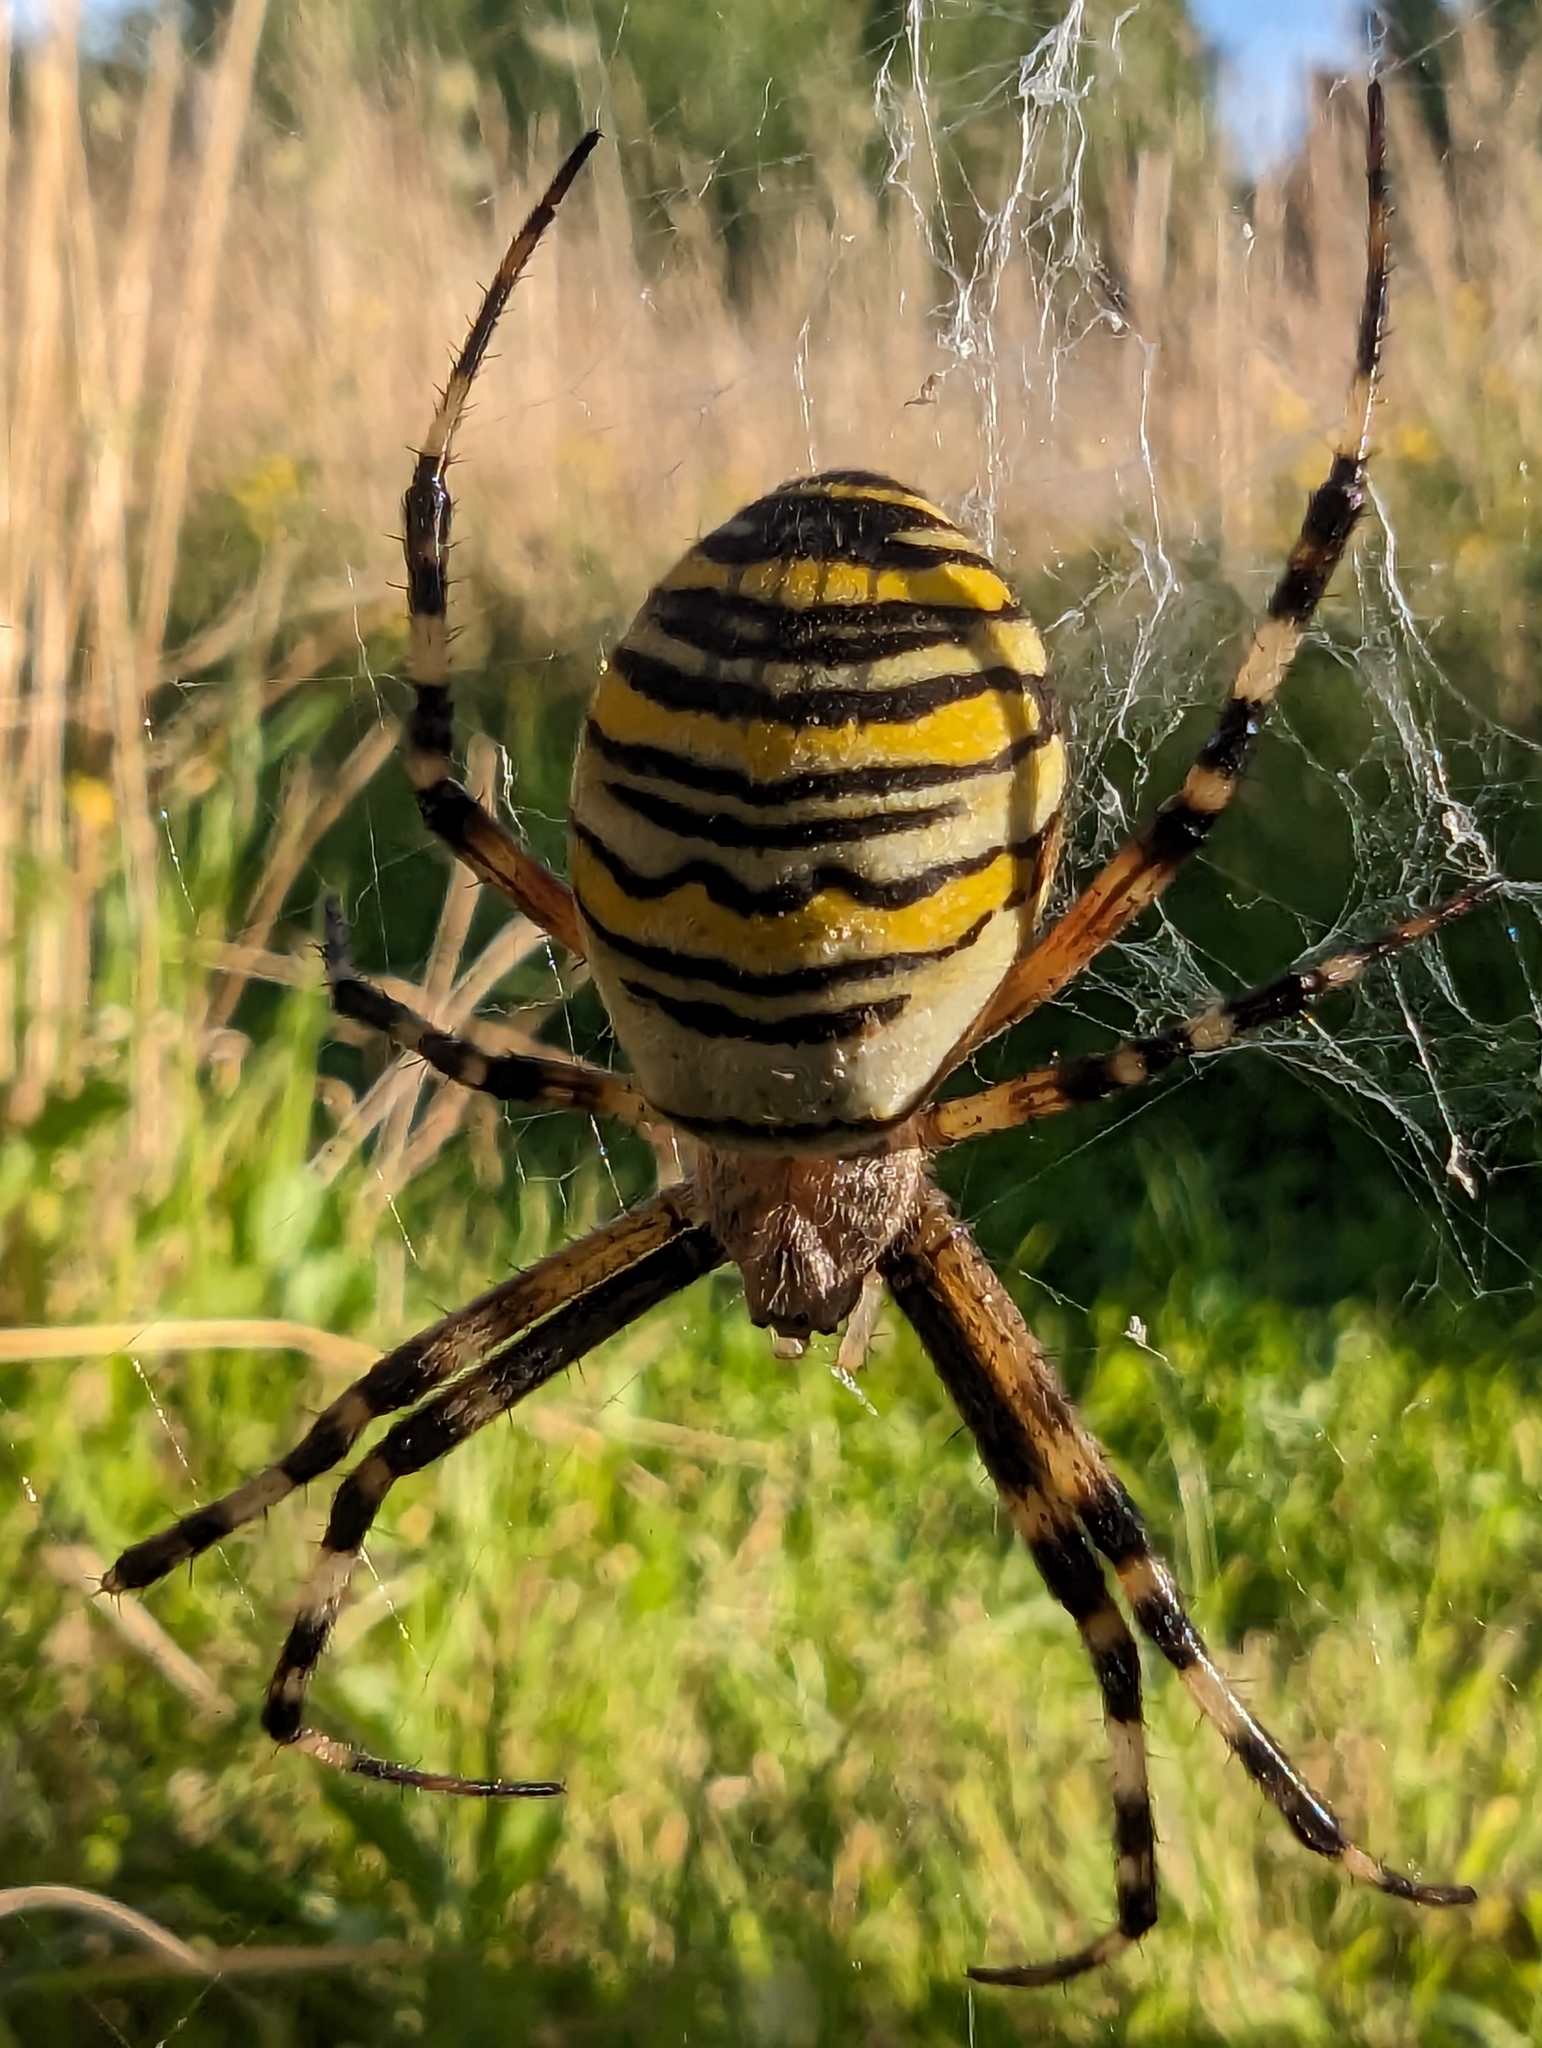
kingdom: Animalia
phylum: Arthropoda
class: Arachnida
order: Araneae
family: Araneidae
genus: Argiope
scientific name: Argiope bruennichi
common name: Wasp spider
